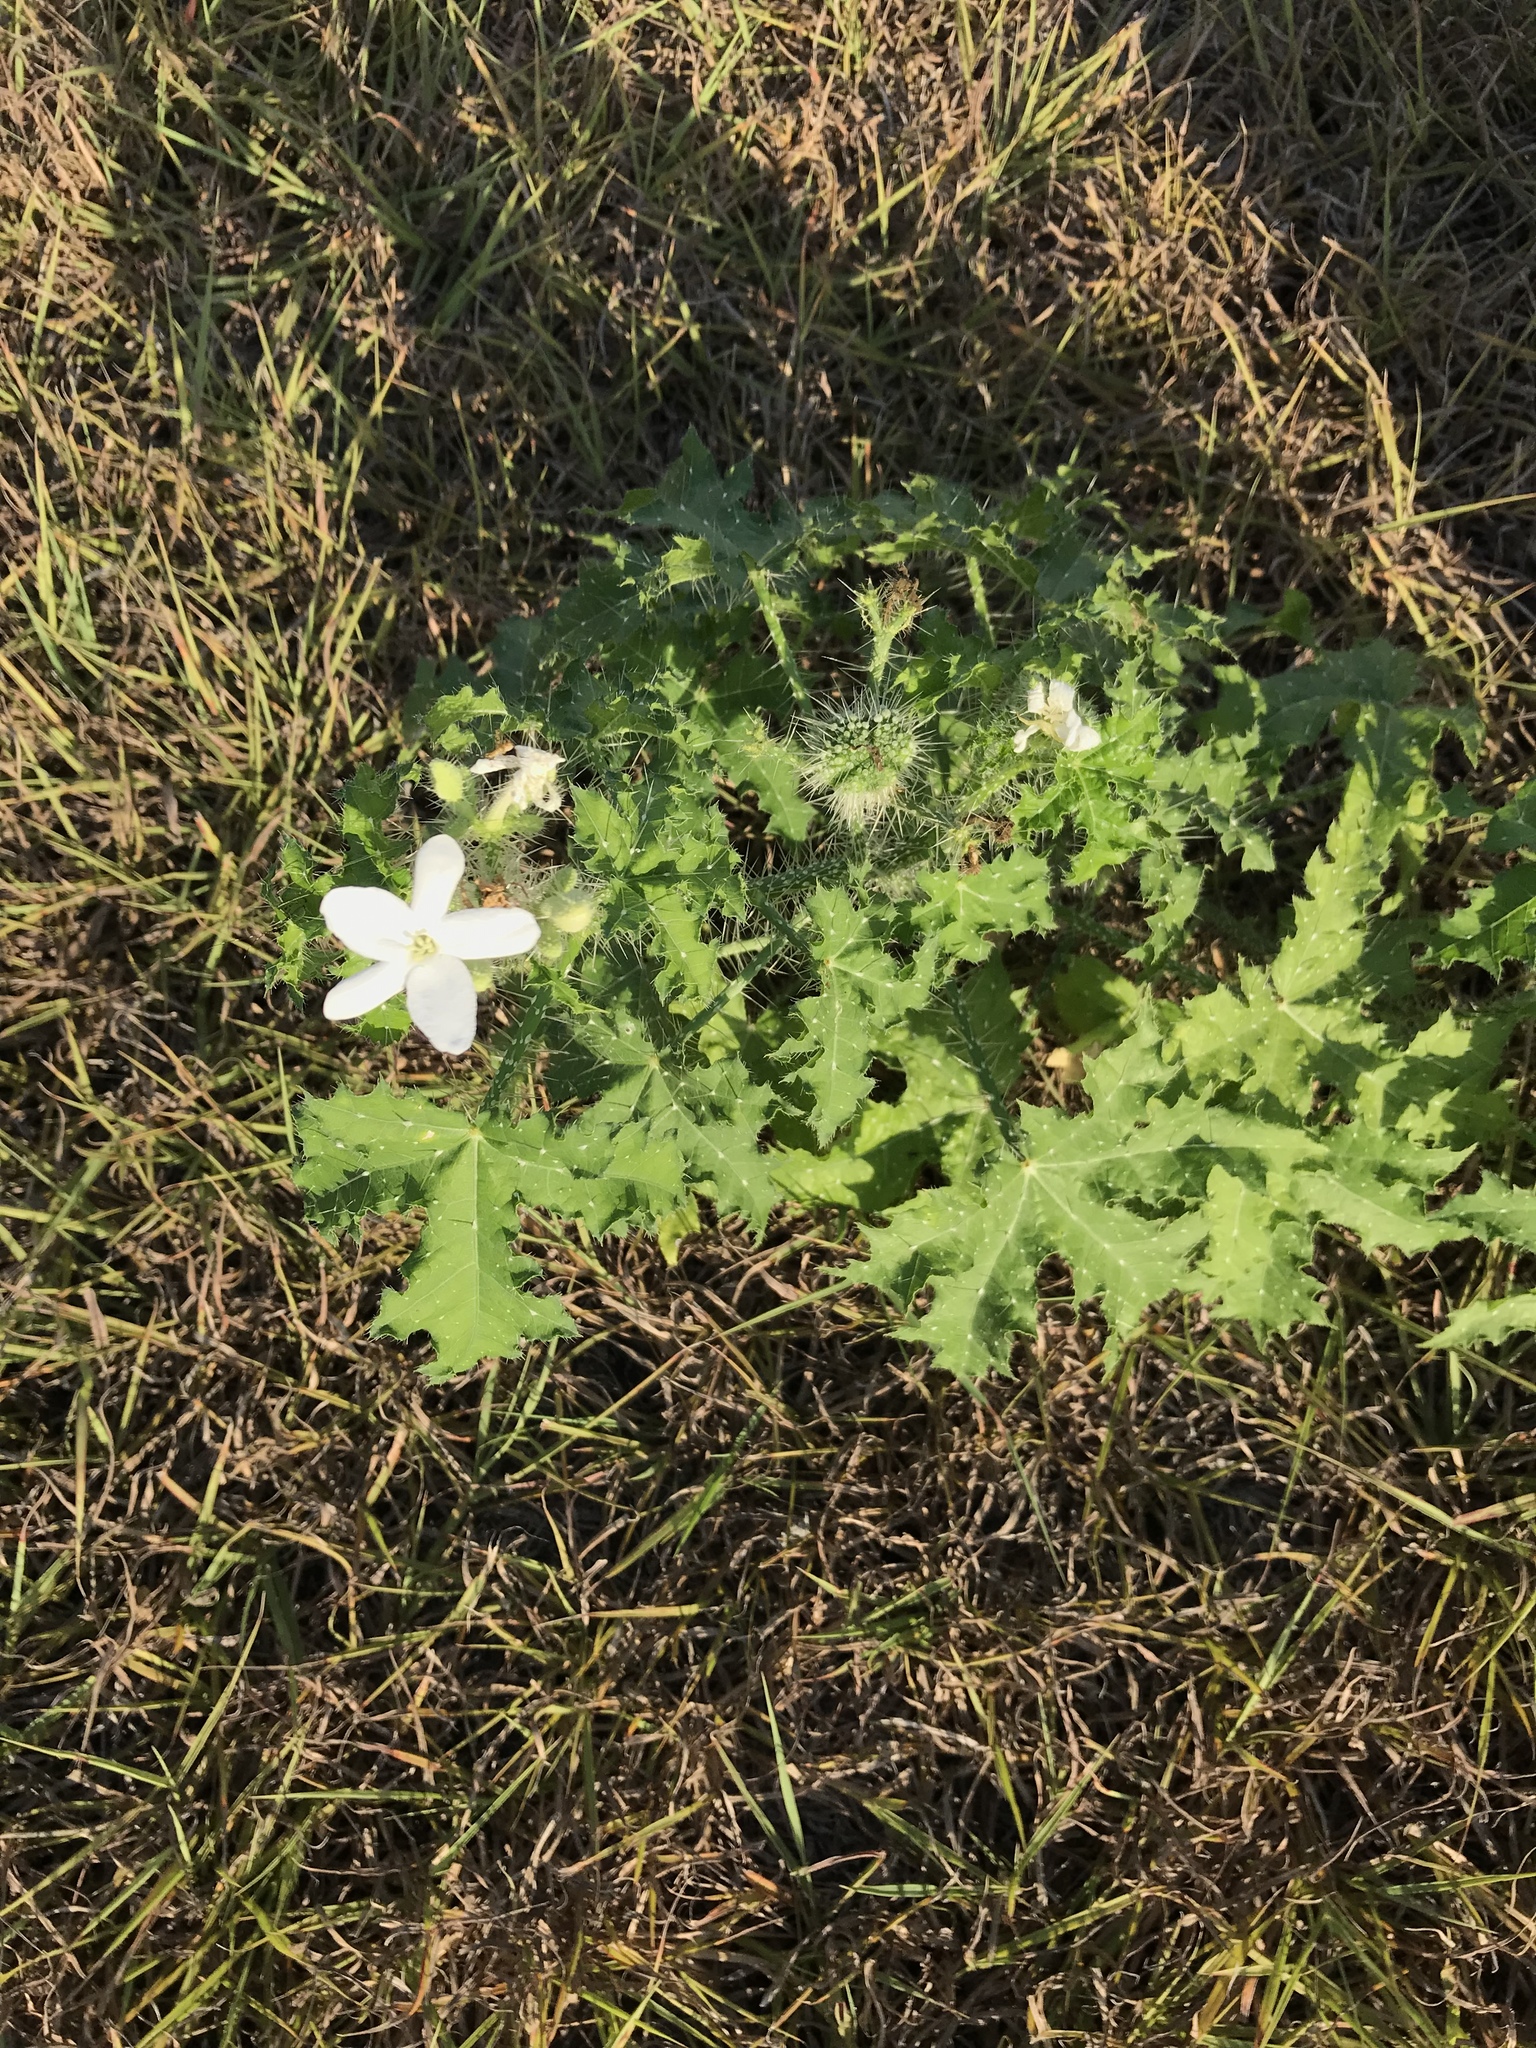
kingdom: Plantae
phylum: Tracheophyta
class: Magnoliopsida
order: Malpighiales
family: Euphorbiaceae
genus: Cnidoscolus
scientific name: Cnidoscolus texanus
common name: Texas bull-nettle
